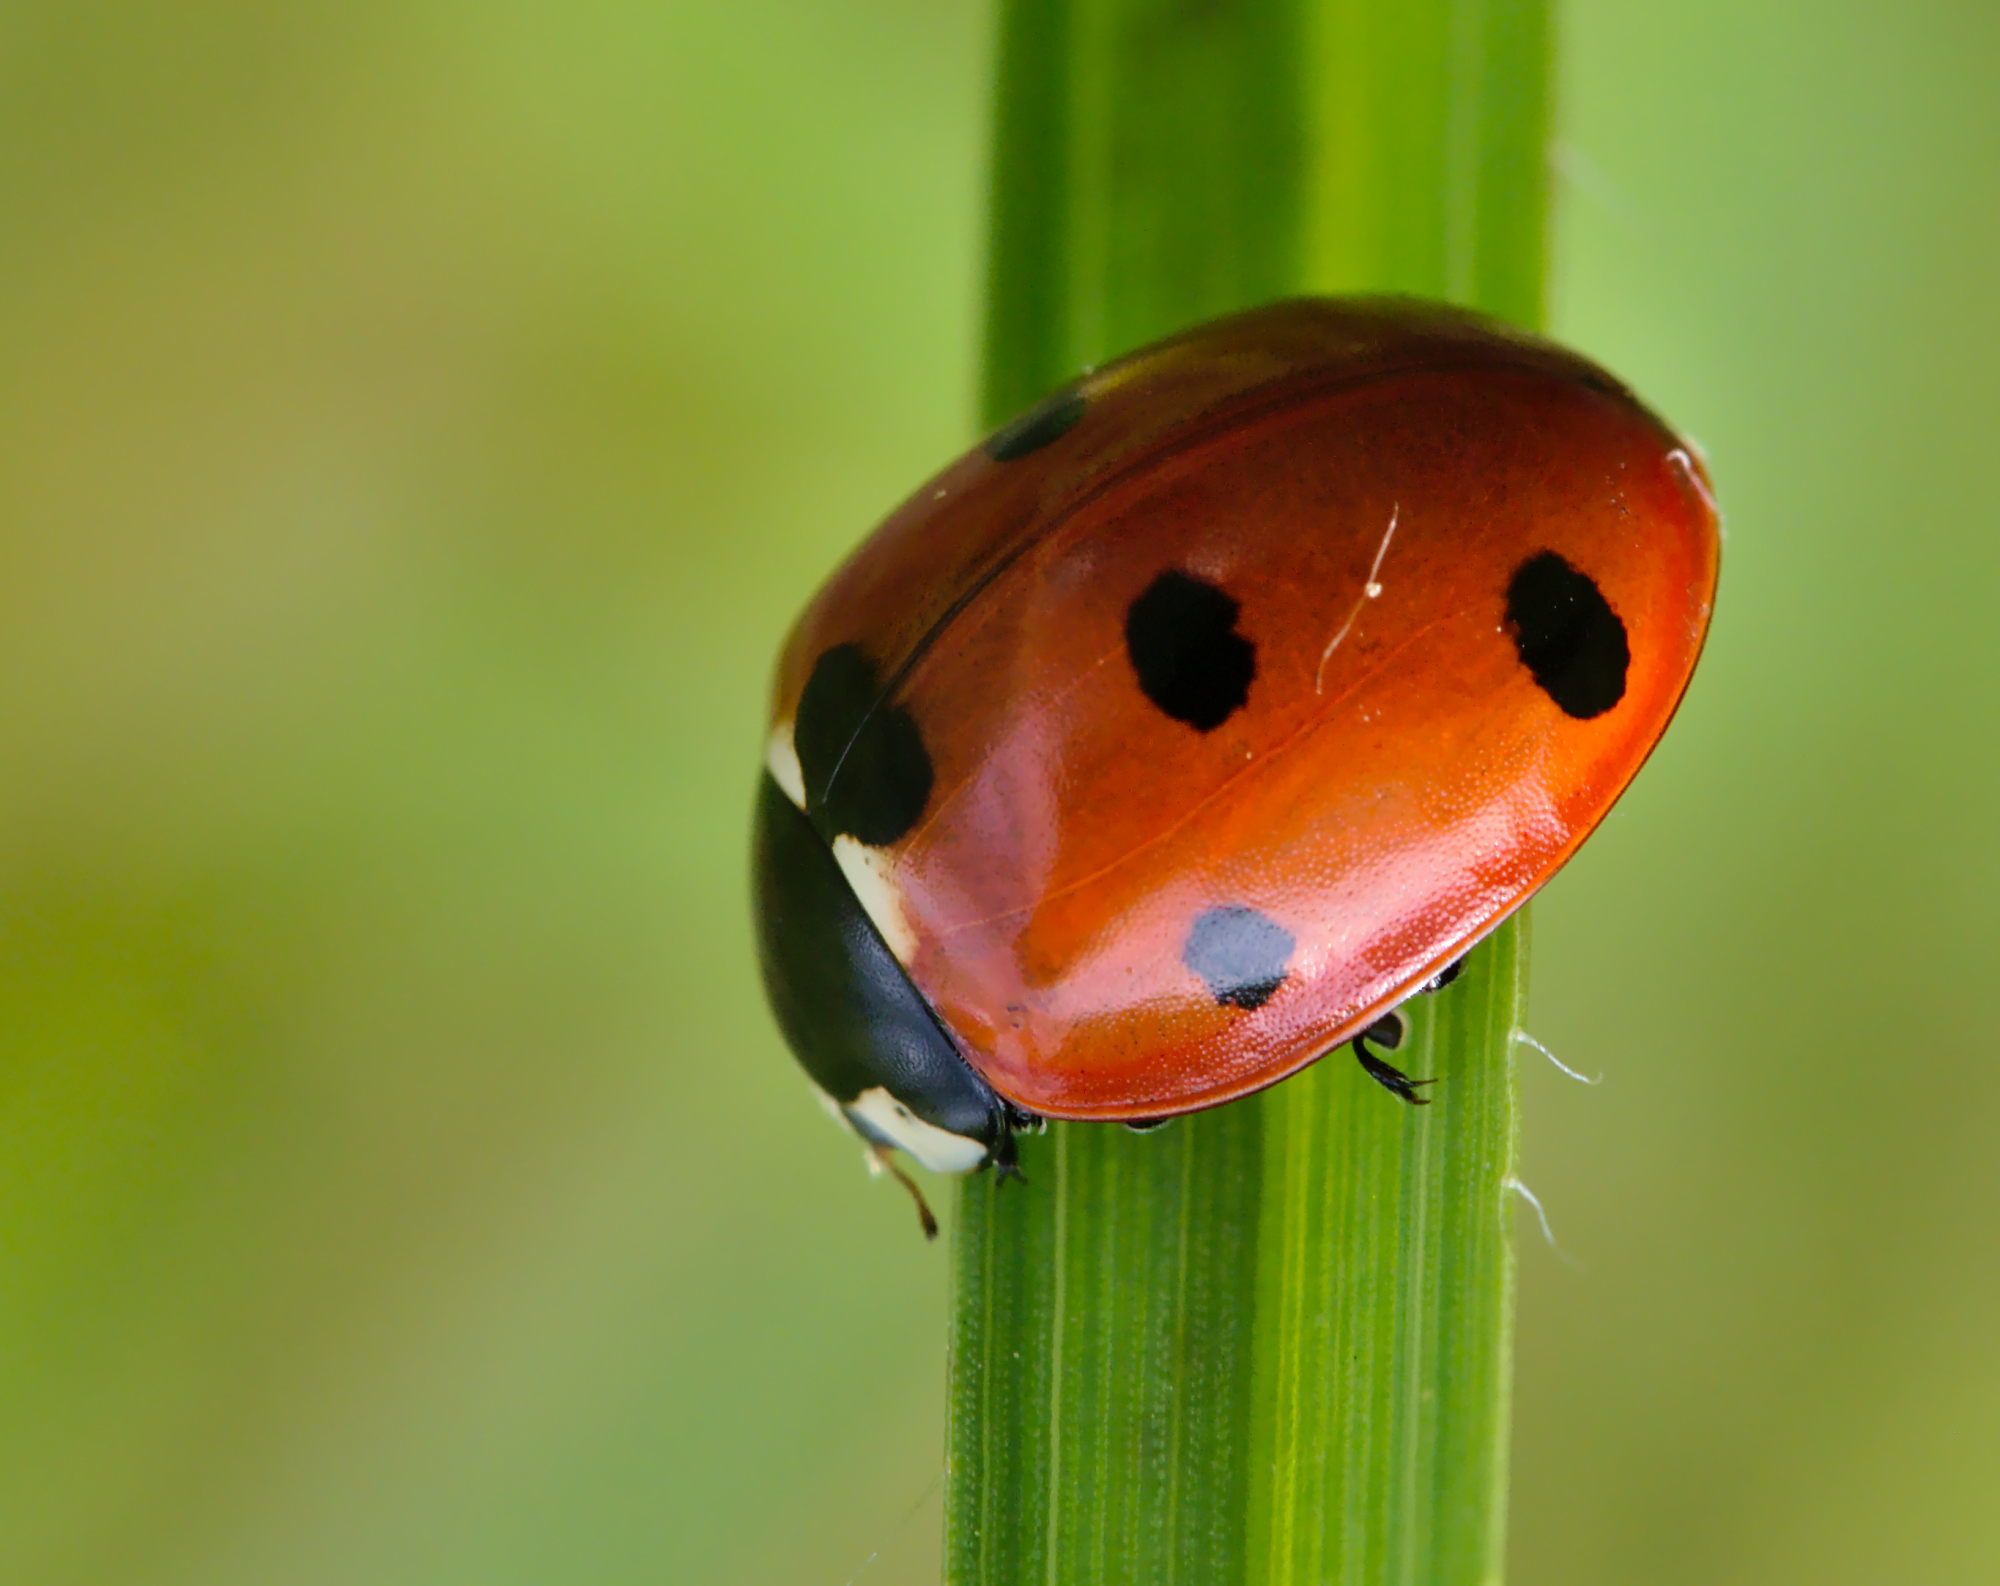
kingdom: Animalia
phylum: Arthropoda
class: Insecta
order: Coleoptera
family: Coccinellidae
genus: Coccinella
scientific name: Coccinella septempunctata
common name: Sevenspotted lady beetle
